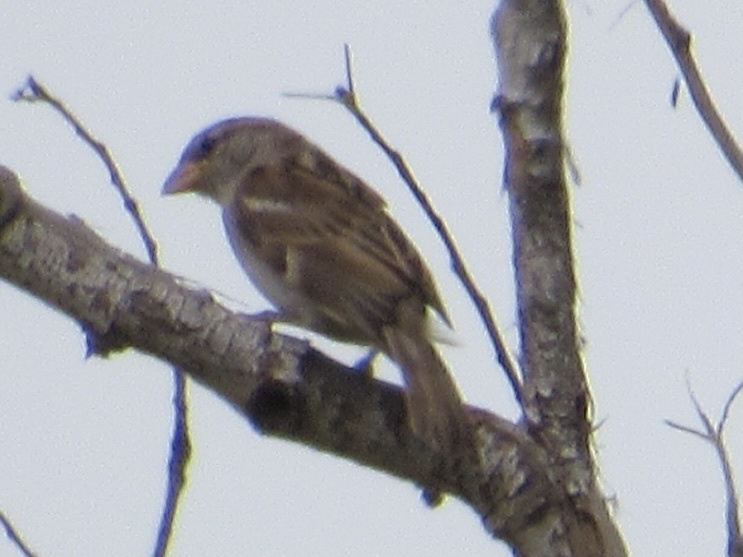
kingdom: Animalia
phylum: Chordata
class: Aves
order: Passeriformes
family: Passeridae
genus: Passer
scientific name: Passer domesticus
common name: House sparrow
